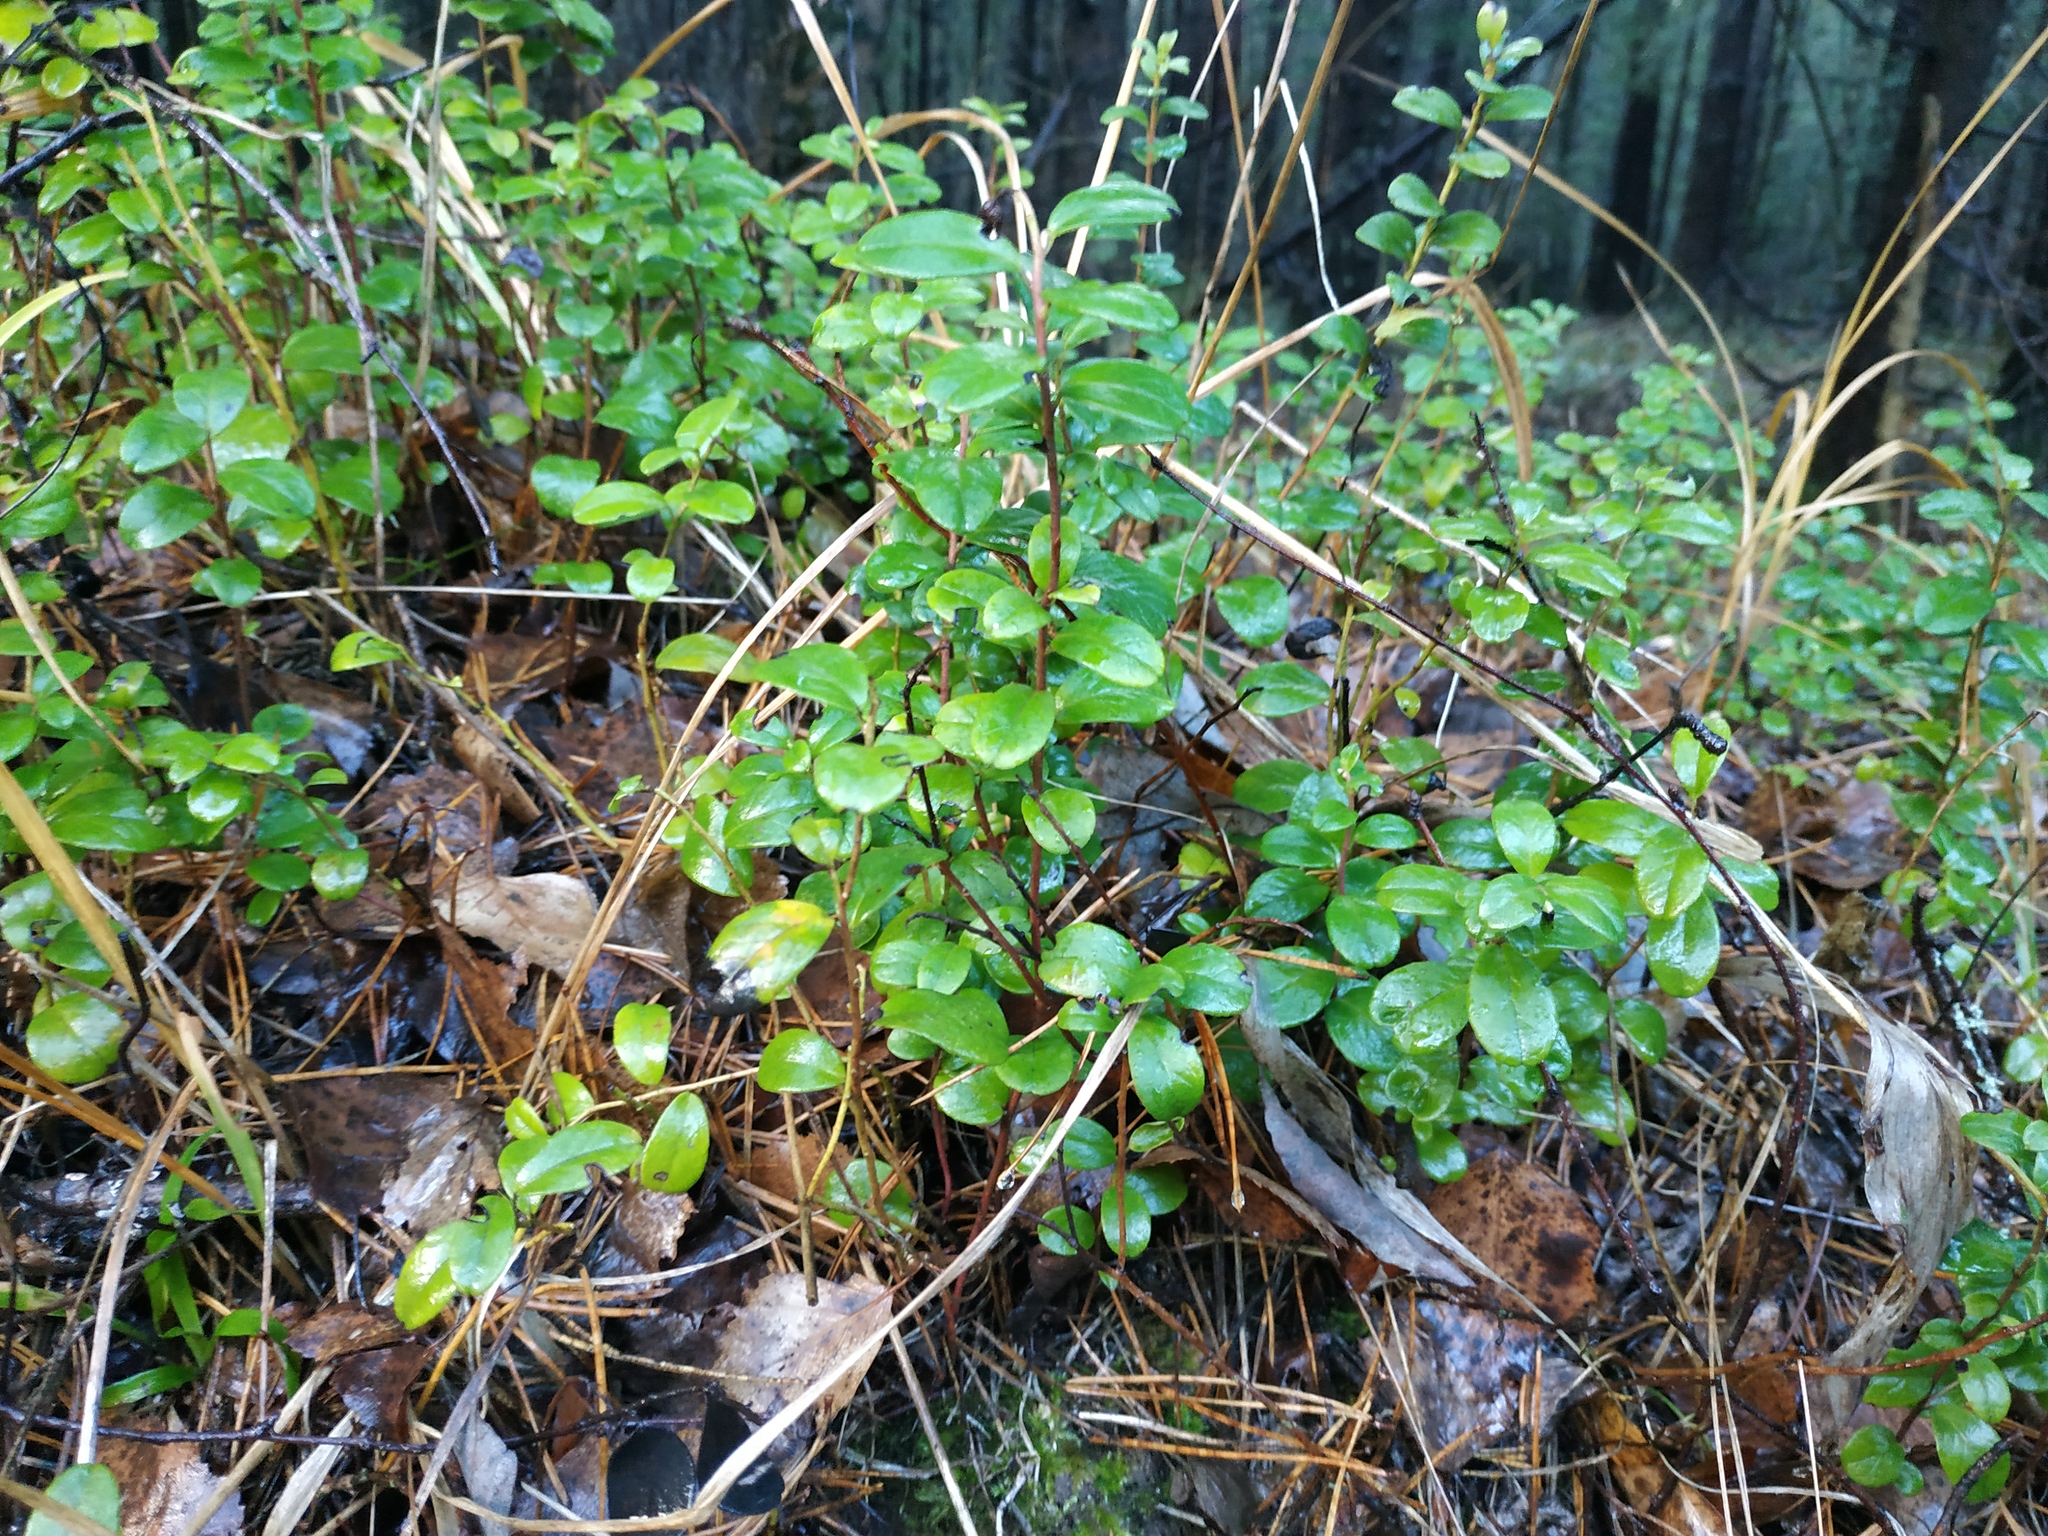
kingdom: Plantae
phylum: Tracheophyta
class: Magnoliopsida
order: Ericales
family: Ericaceae
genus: Vaccinium
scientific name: Vaccinium vitis-idaea
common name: Cowberry
